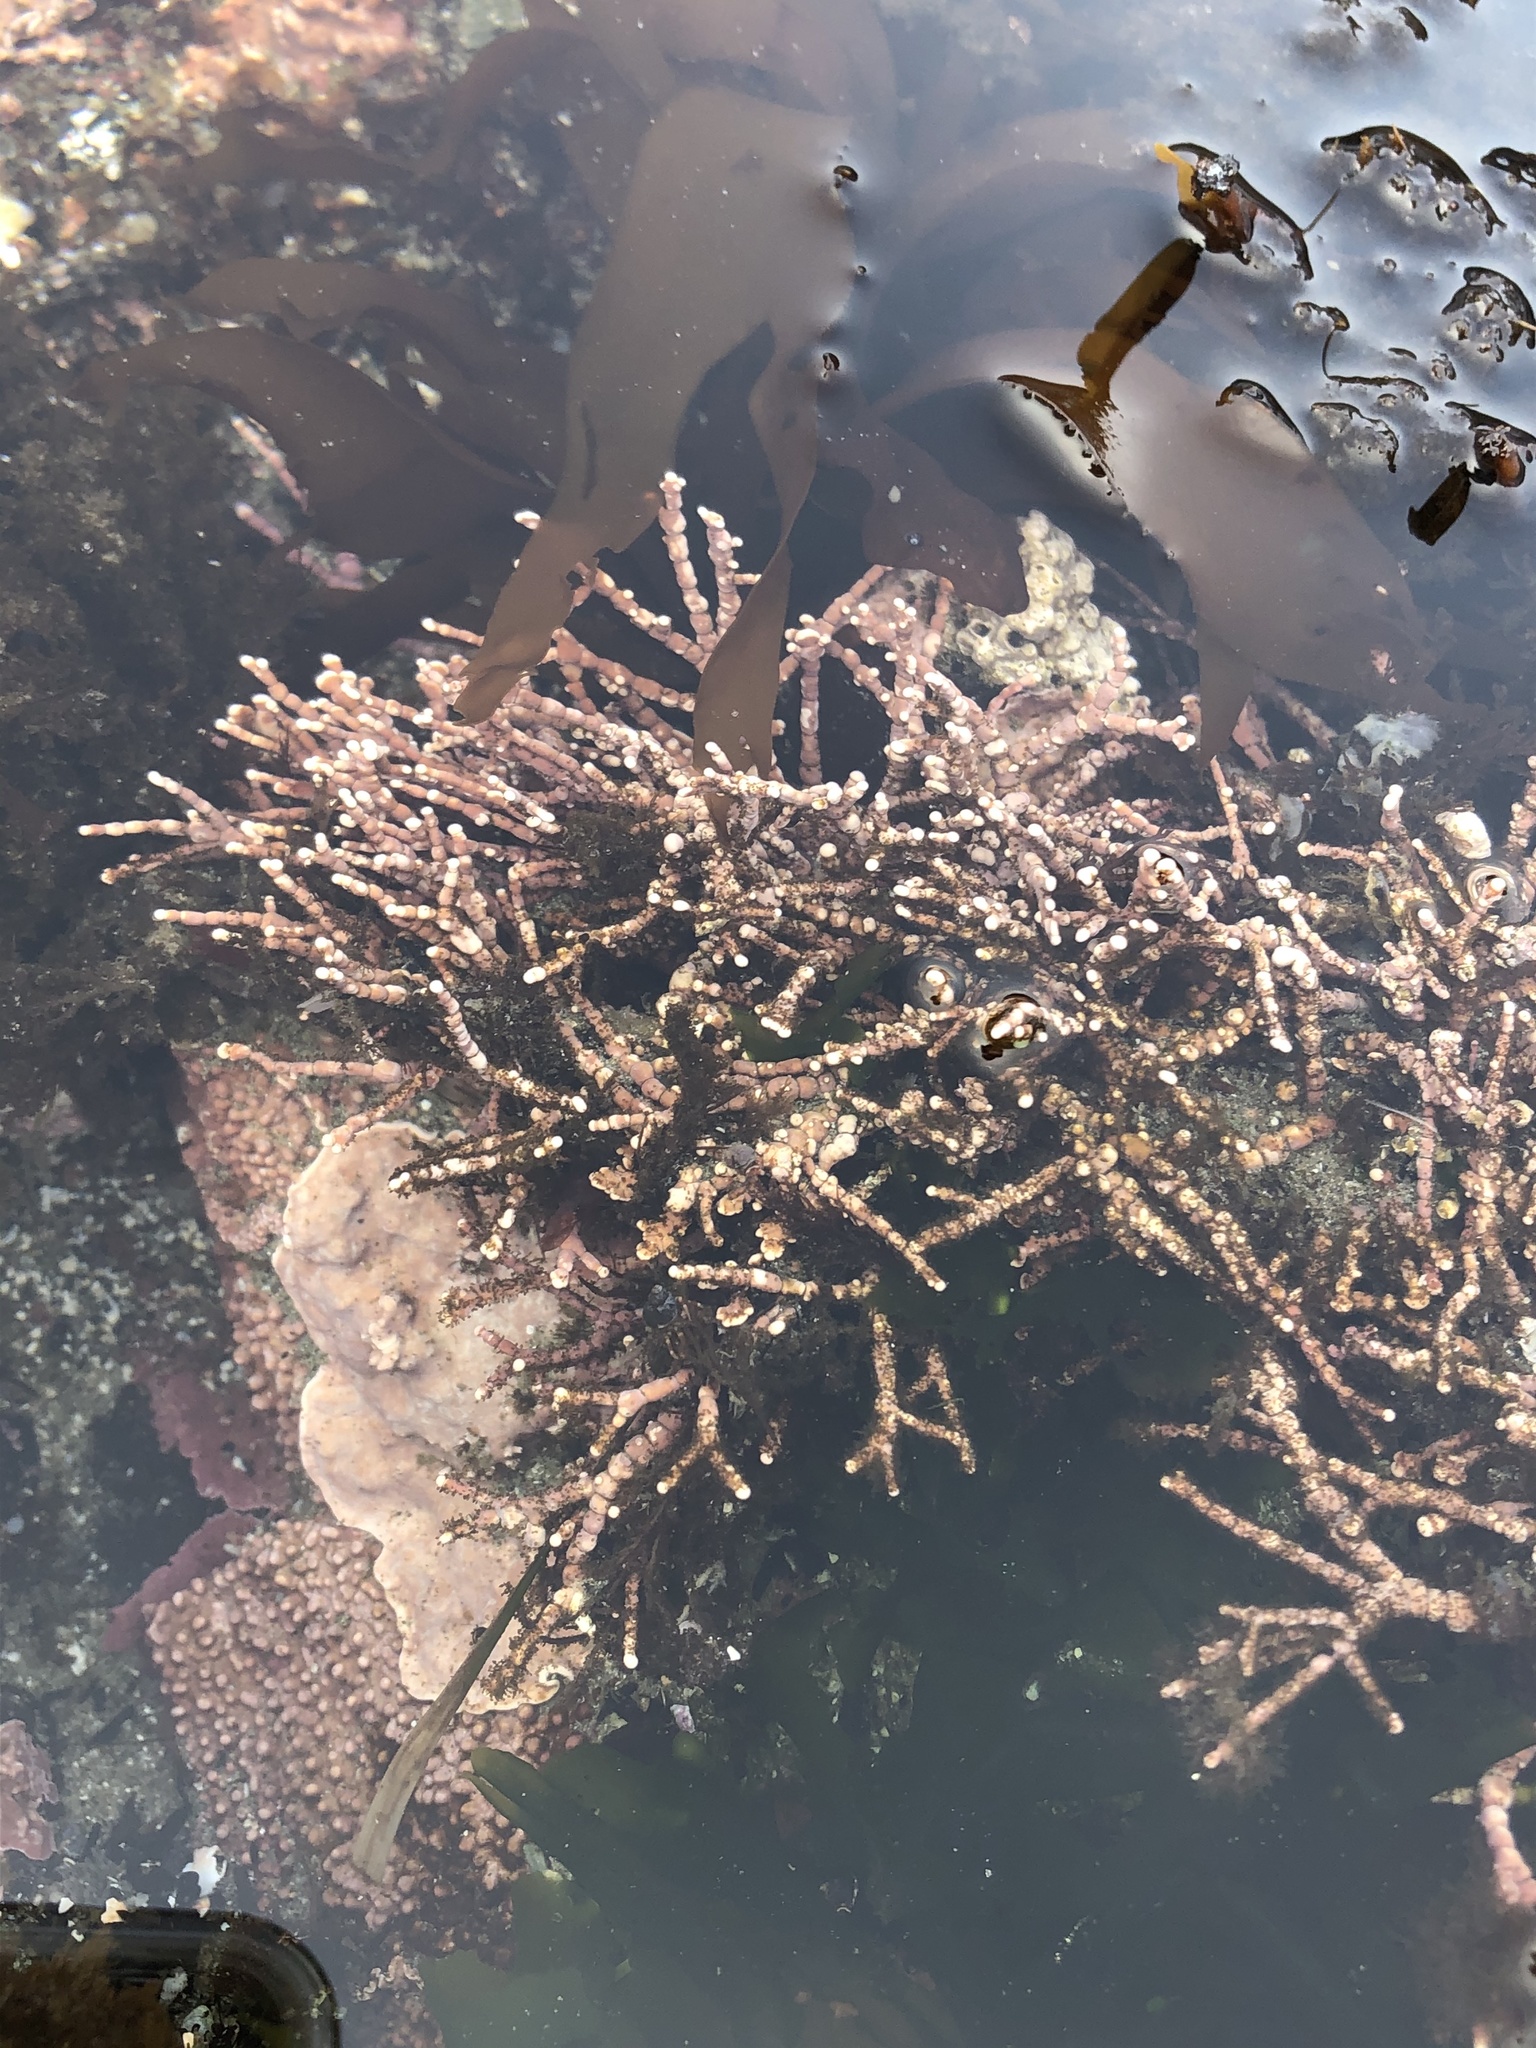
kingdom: Plantae
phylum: Rhodophyta
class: Florideophyceae
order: Corallinales
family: Corallinaceae
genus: Calliarthron
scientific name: Calliarthron tuberculosum
